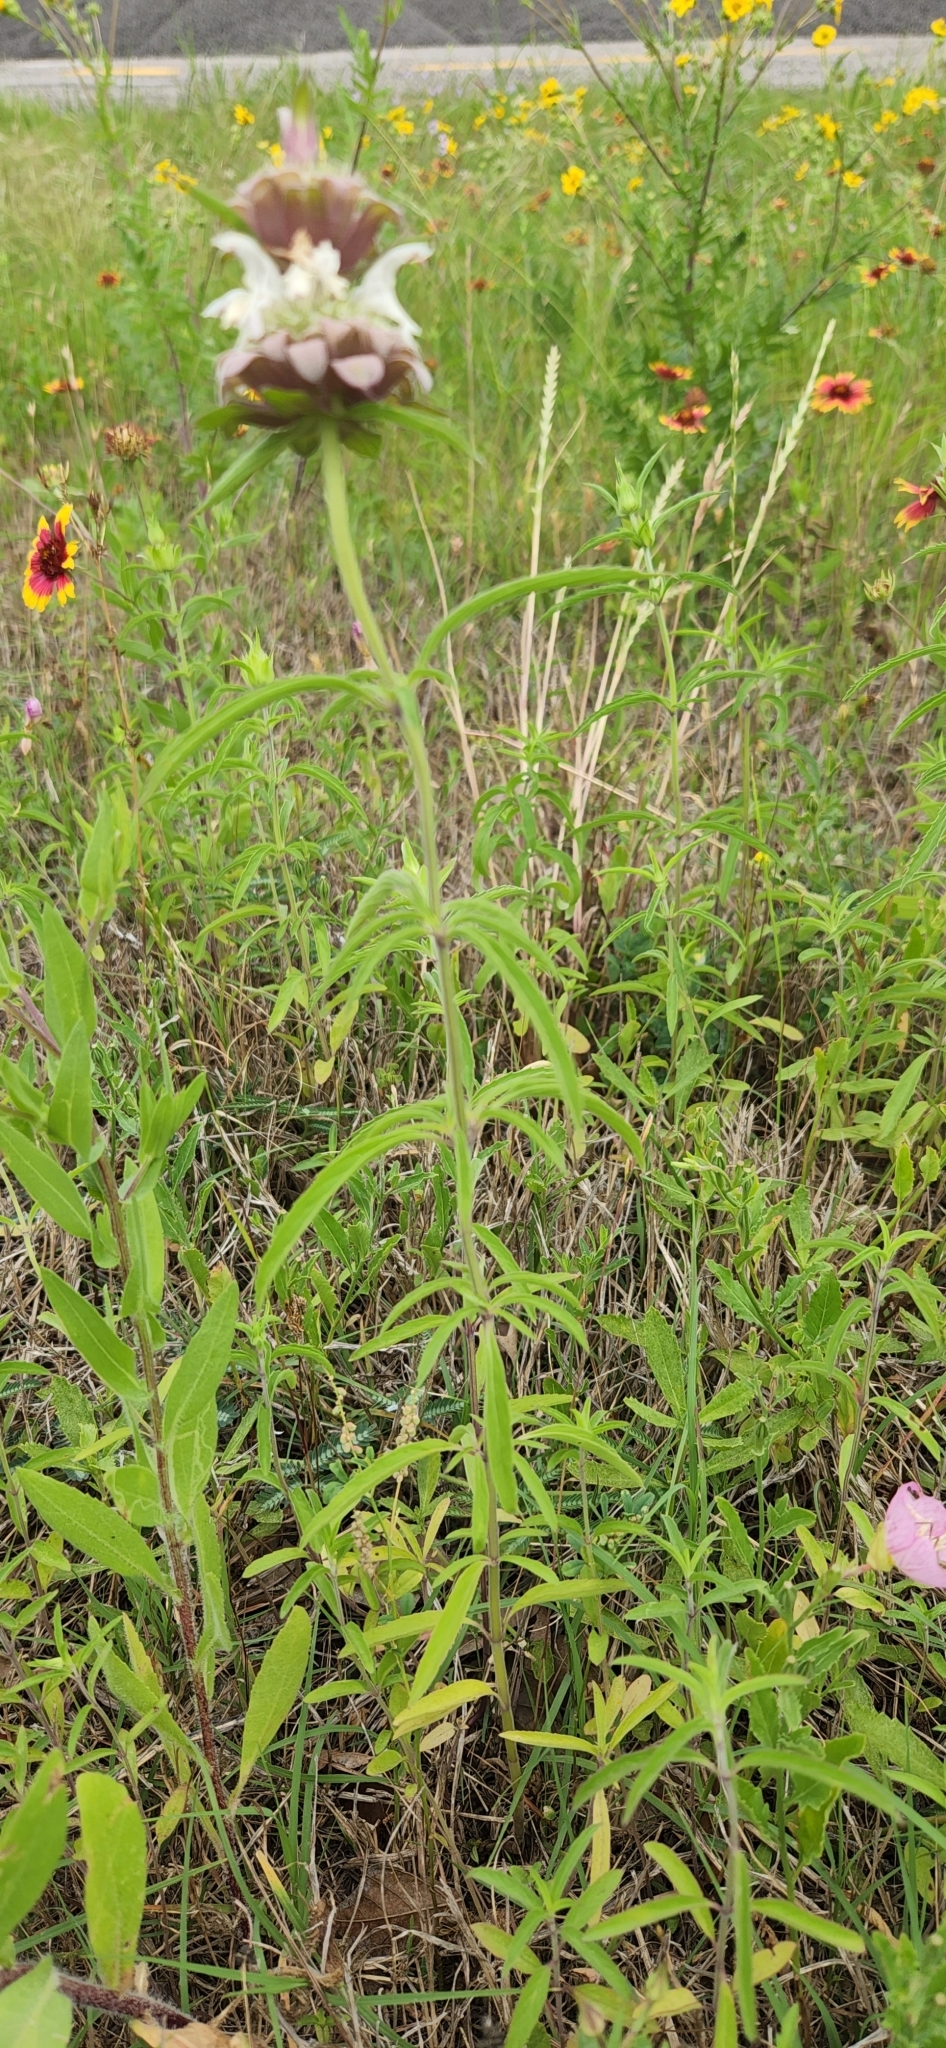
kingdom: Plantae
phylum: Tracheophyta
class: Magnoliopsida
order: Lamiales
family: Lamiaceae
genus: Monarda
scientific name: Monarda citriodora
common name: Lemon beebalm
